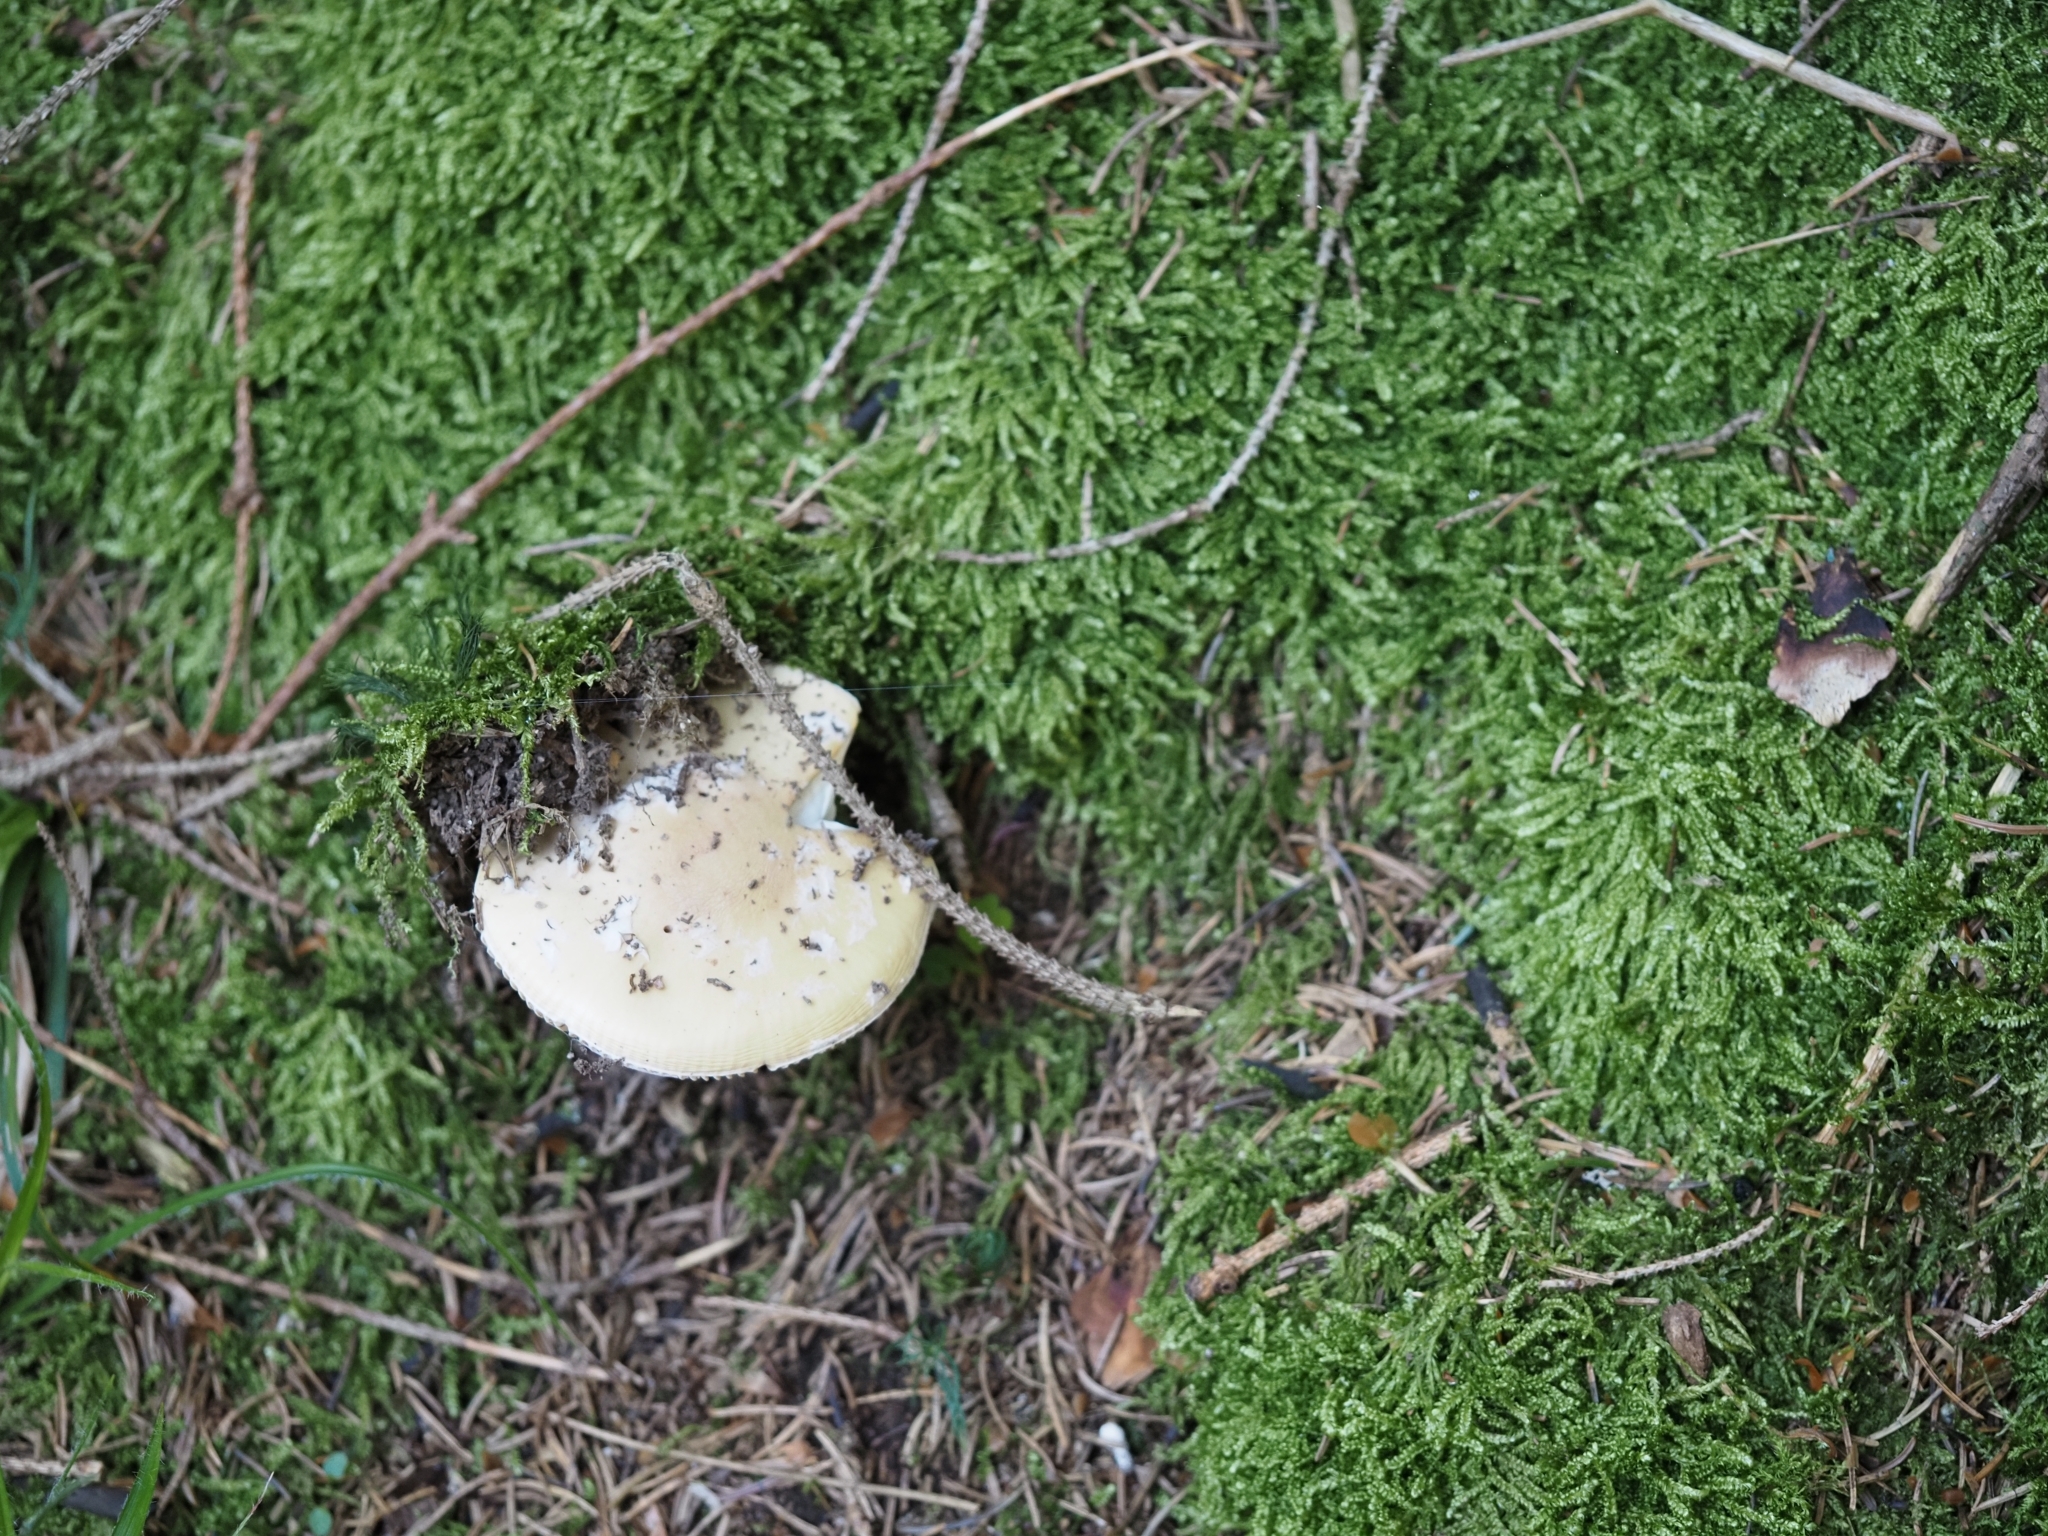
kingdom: Fungi
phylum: Basidiomycota
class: Agaricomycetes
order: Agaricales
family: Amanitaceae
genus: Amanita
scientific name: Amanita gemmata
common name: Jewelled amanita
